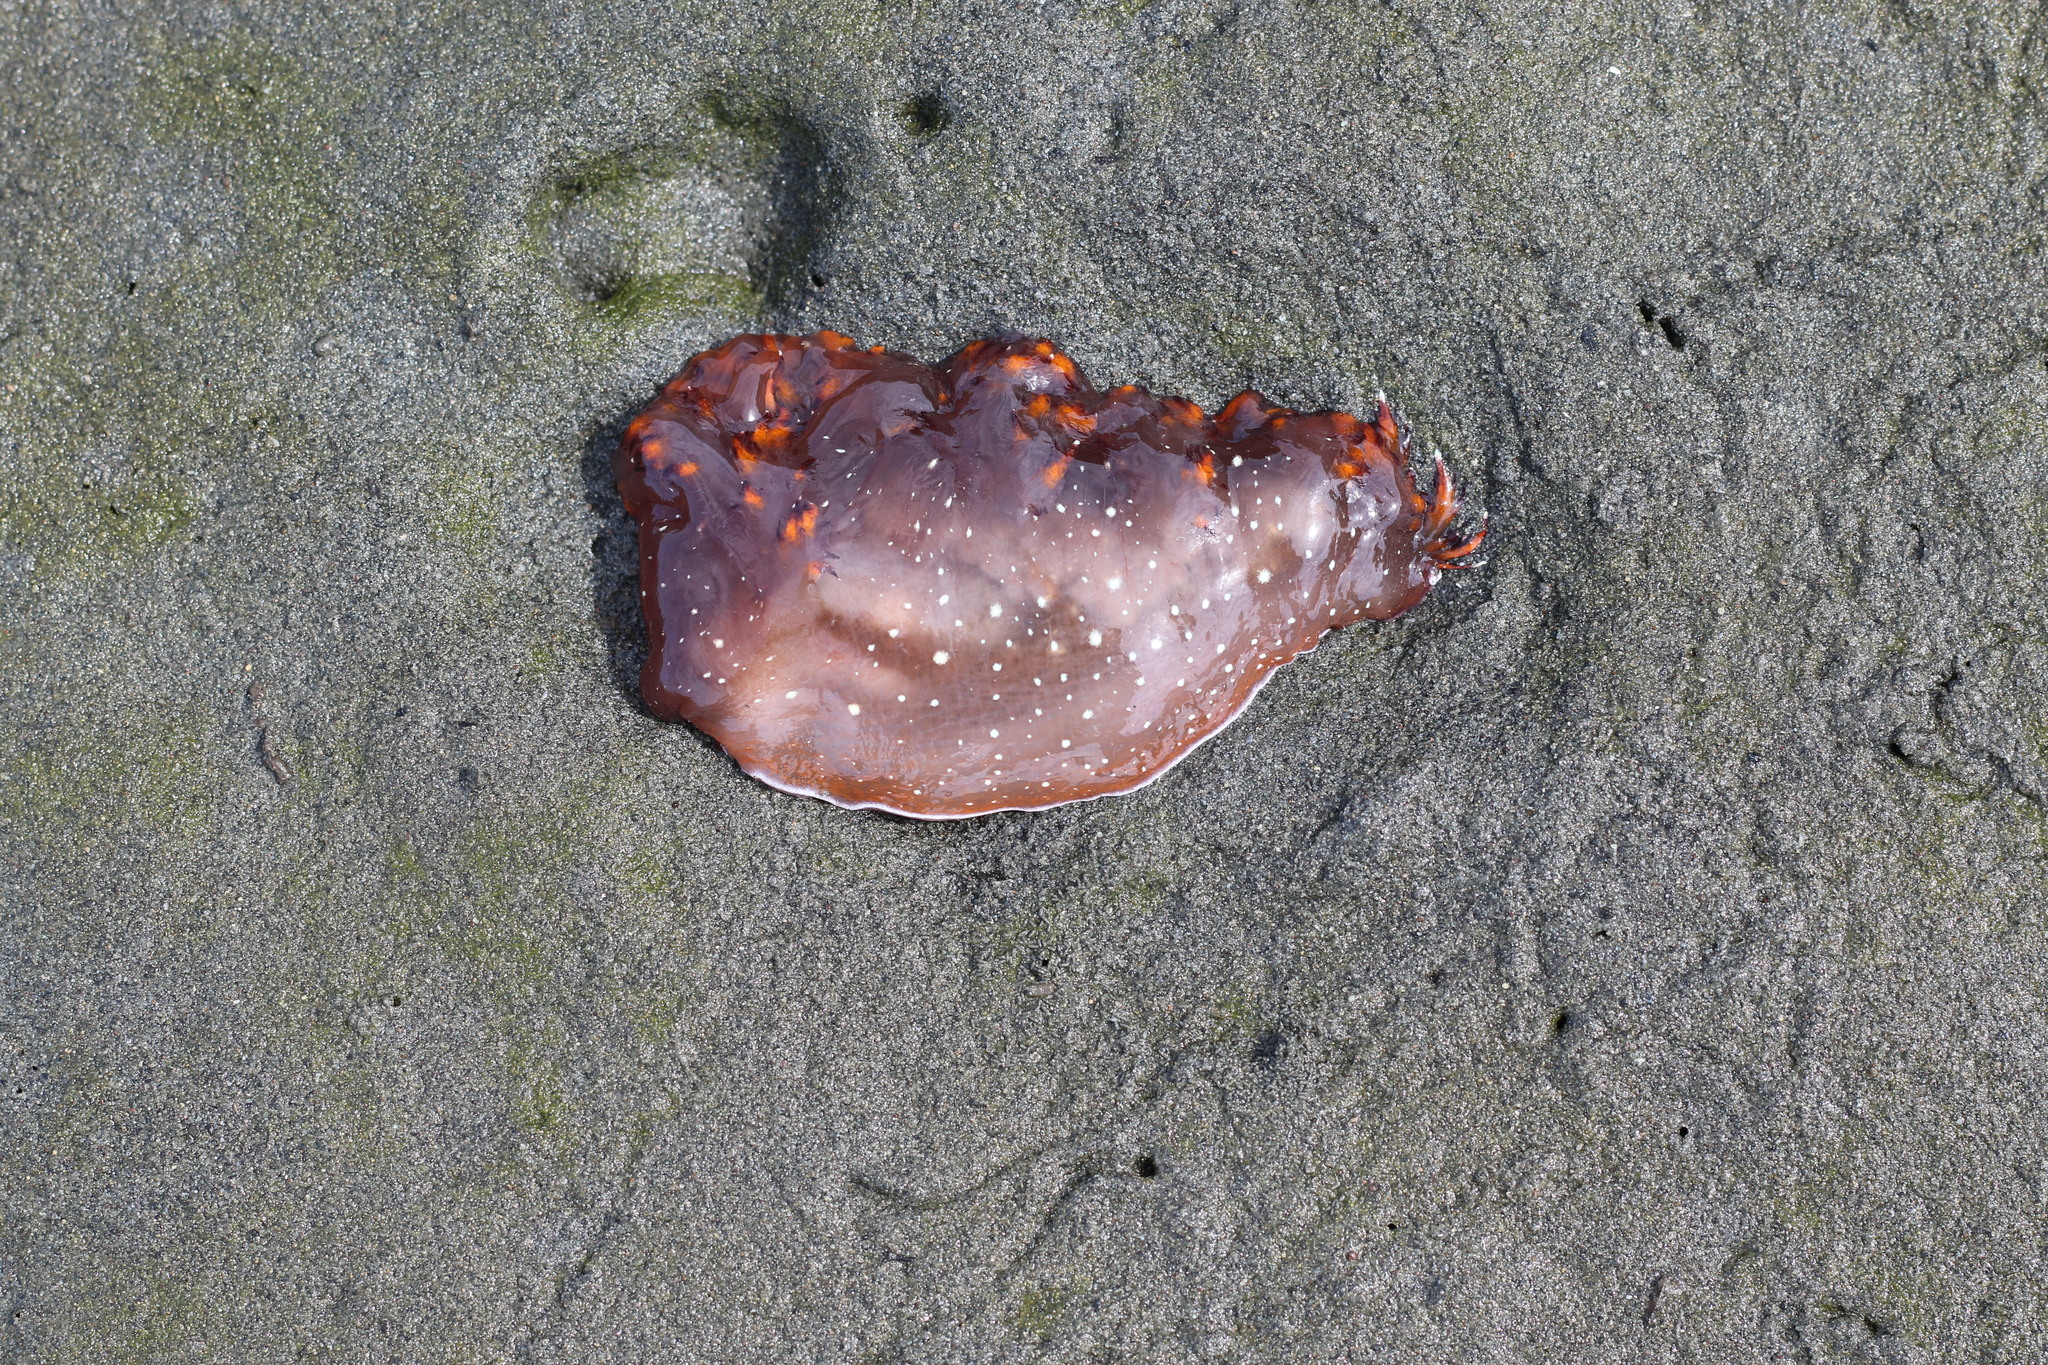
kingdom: Animalia
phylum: Mollusca
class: Gastropoda
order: Nudibranchia
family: Dendronotidae
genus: Dendronotus
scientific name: Dendronotus iris
